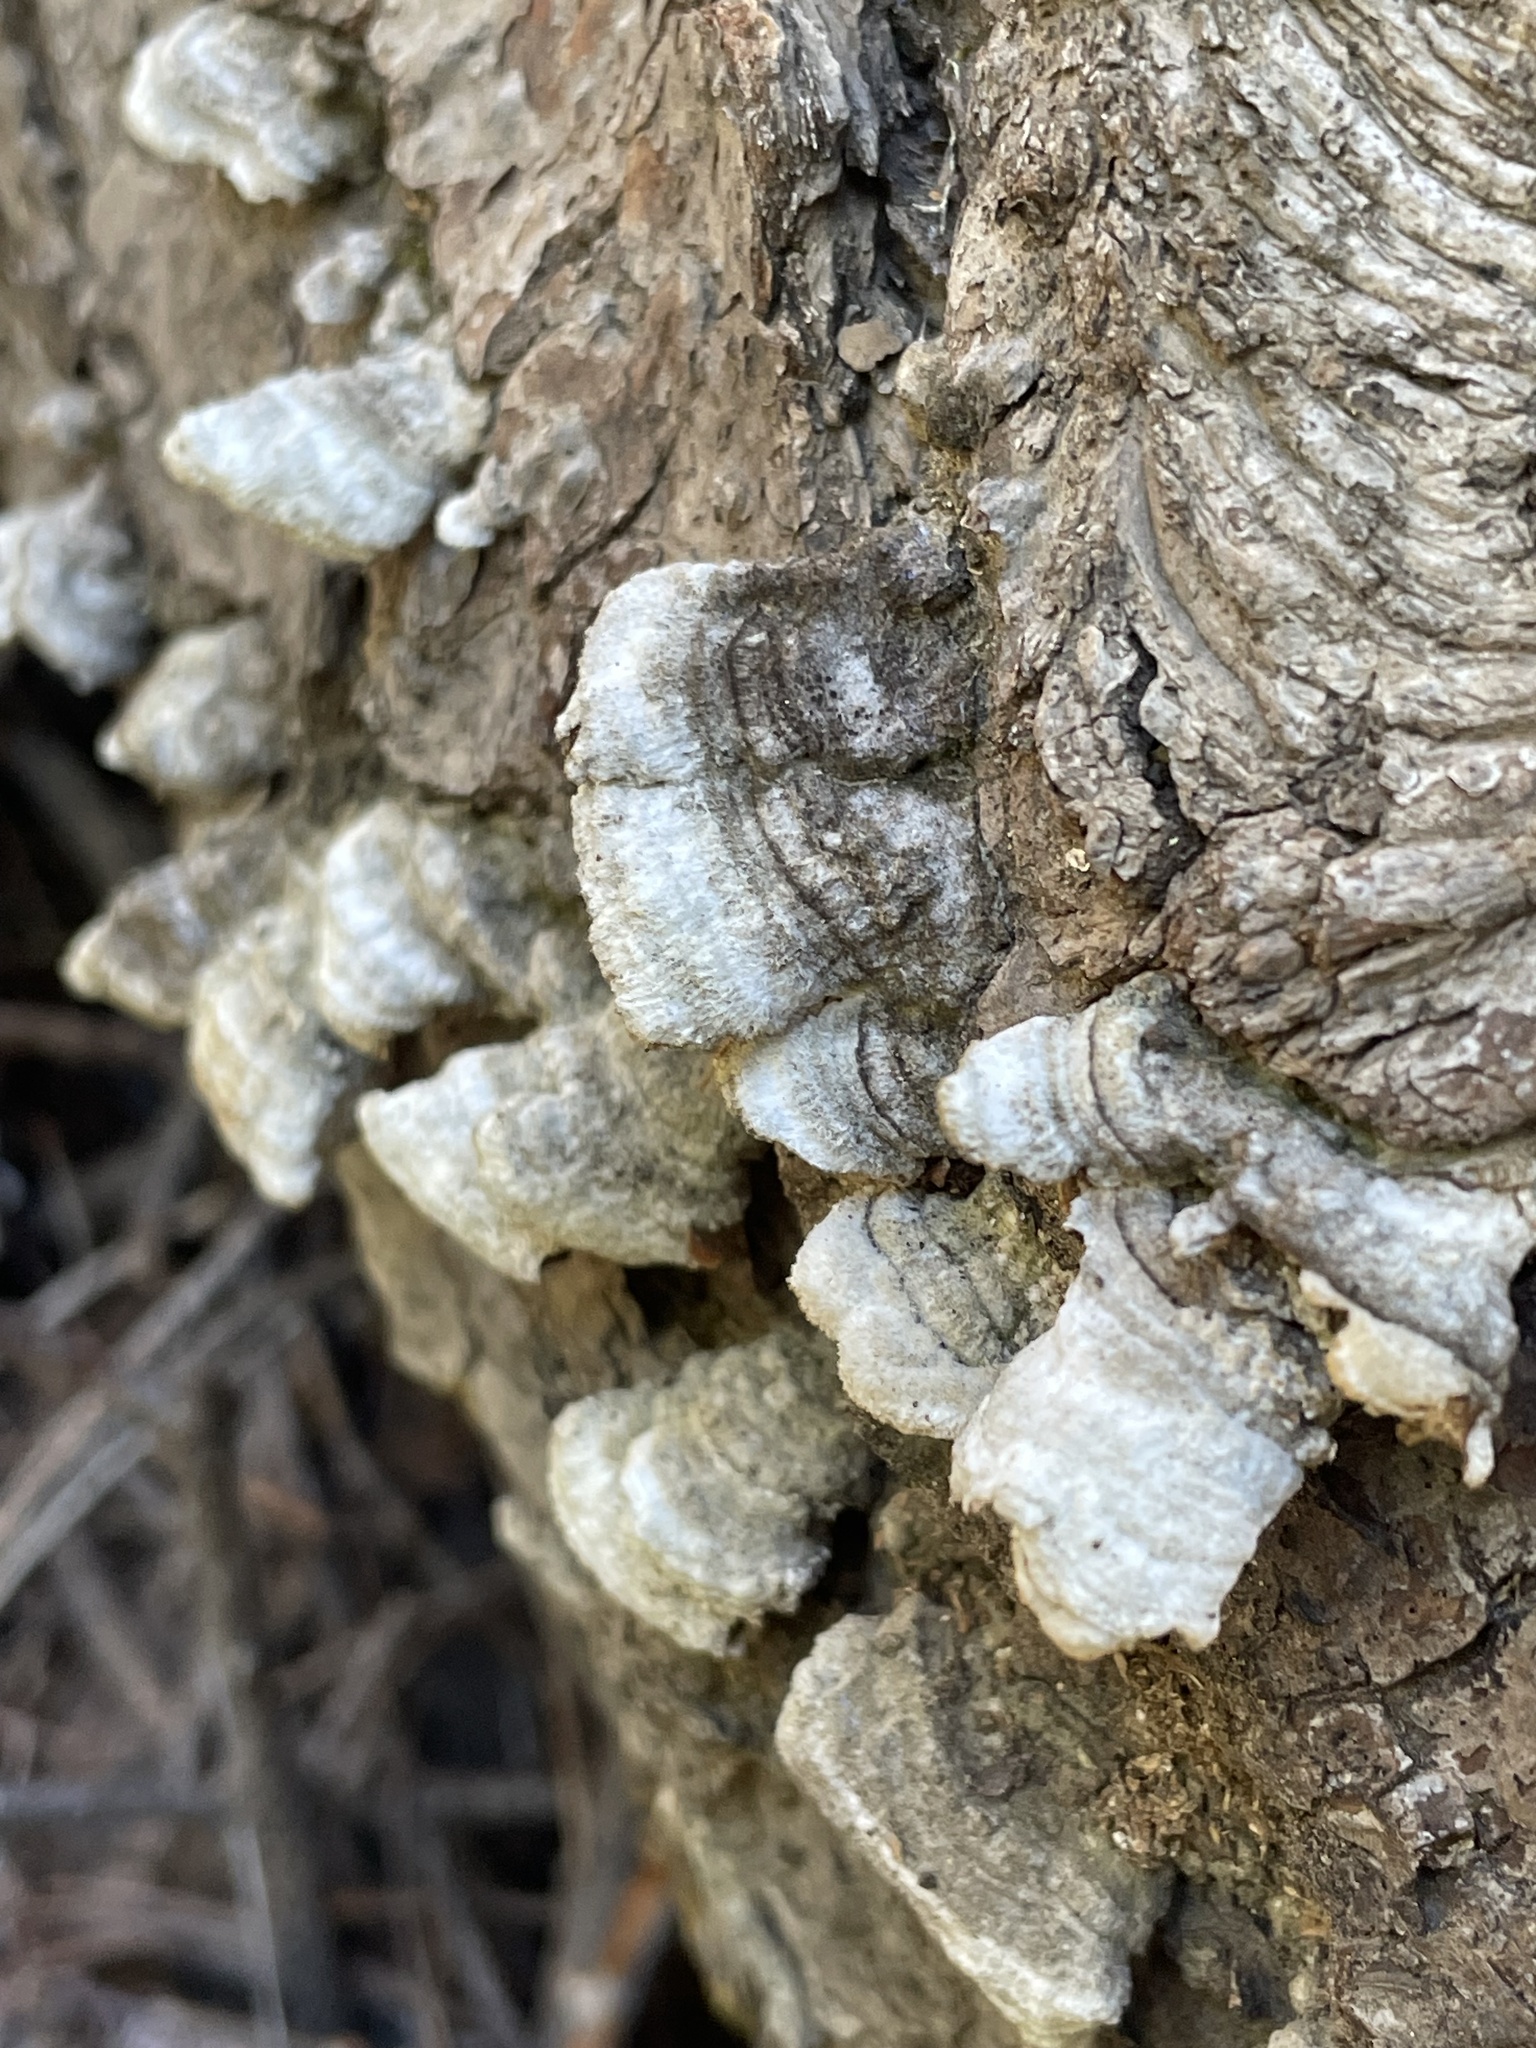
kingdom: Fungi
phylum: Basidiomycota
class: Agaricomycetes
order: Hymenochaetales
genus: Trichaptum
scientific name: Trichaptum abietinum
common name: Purplepore bracket
